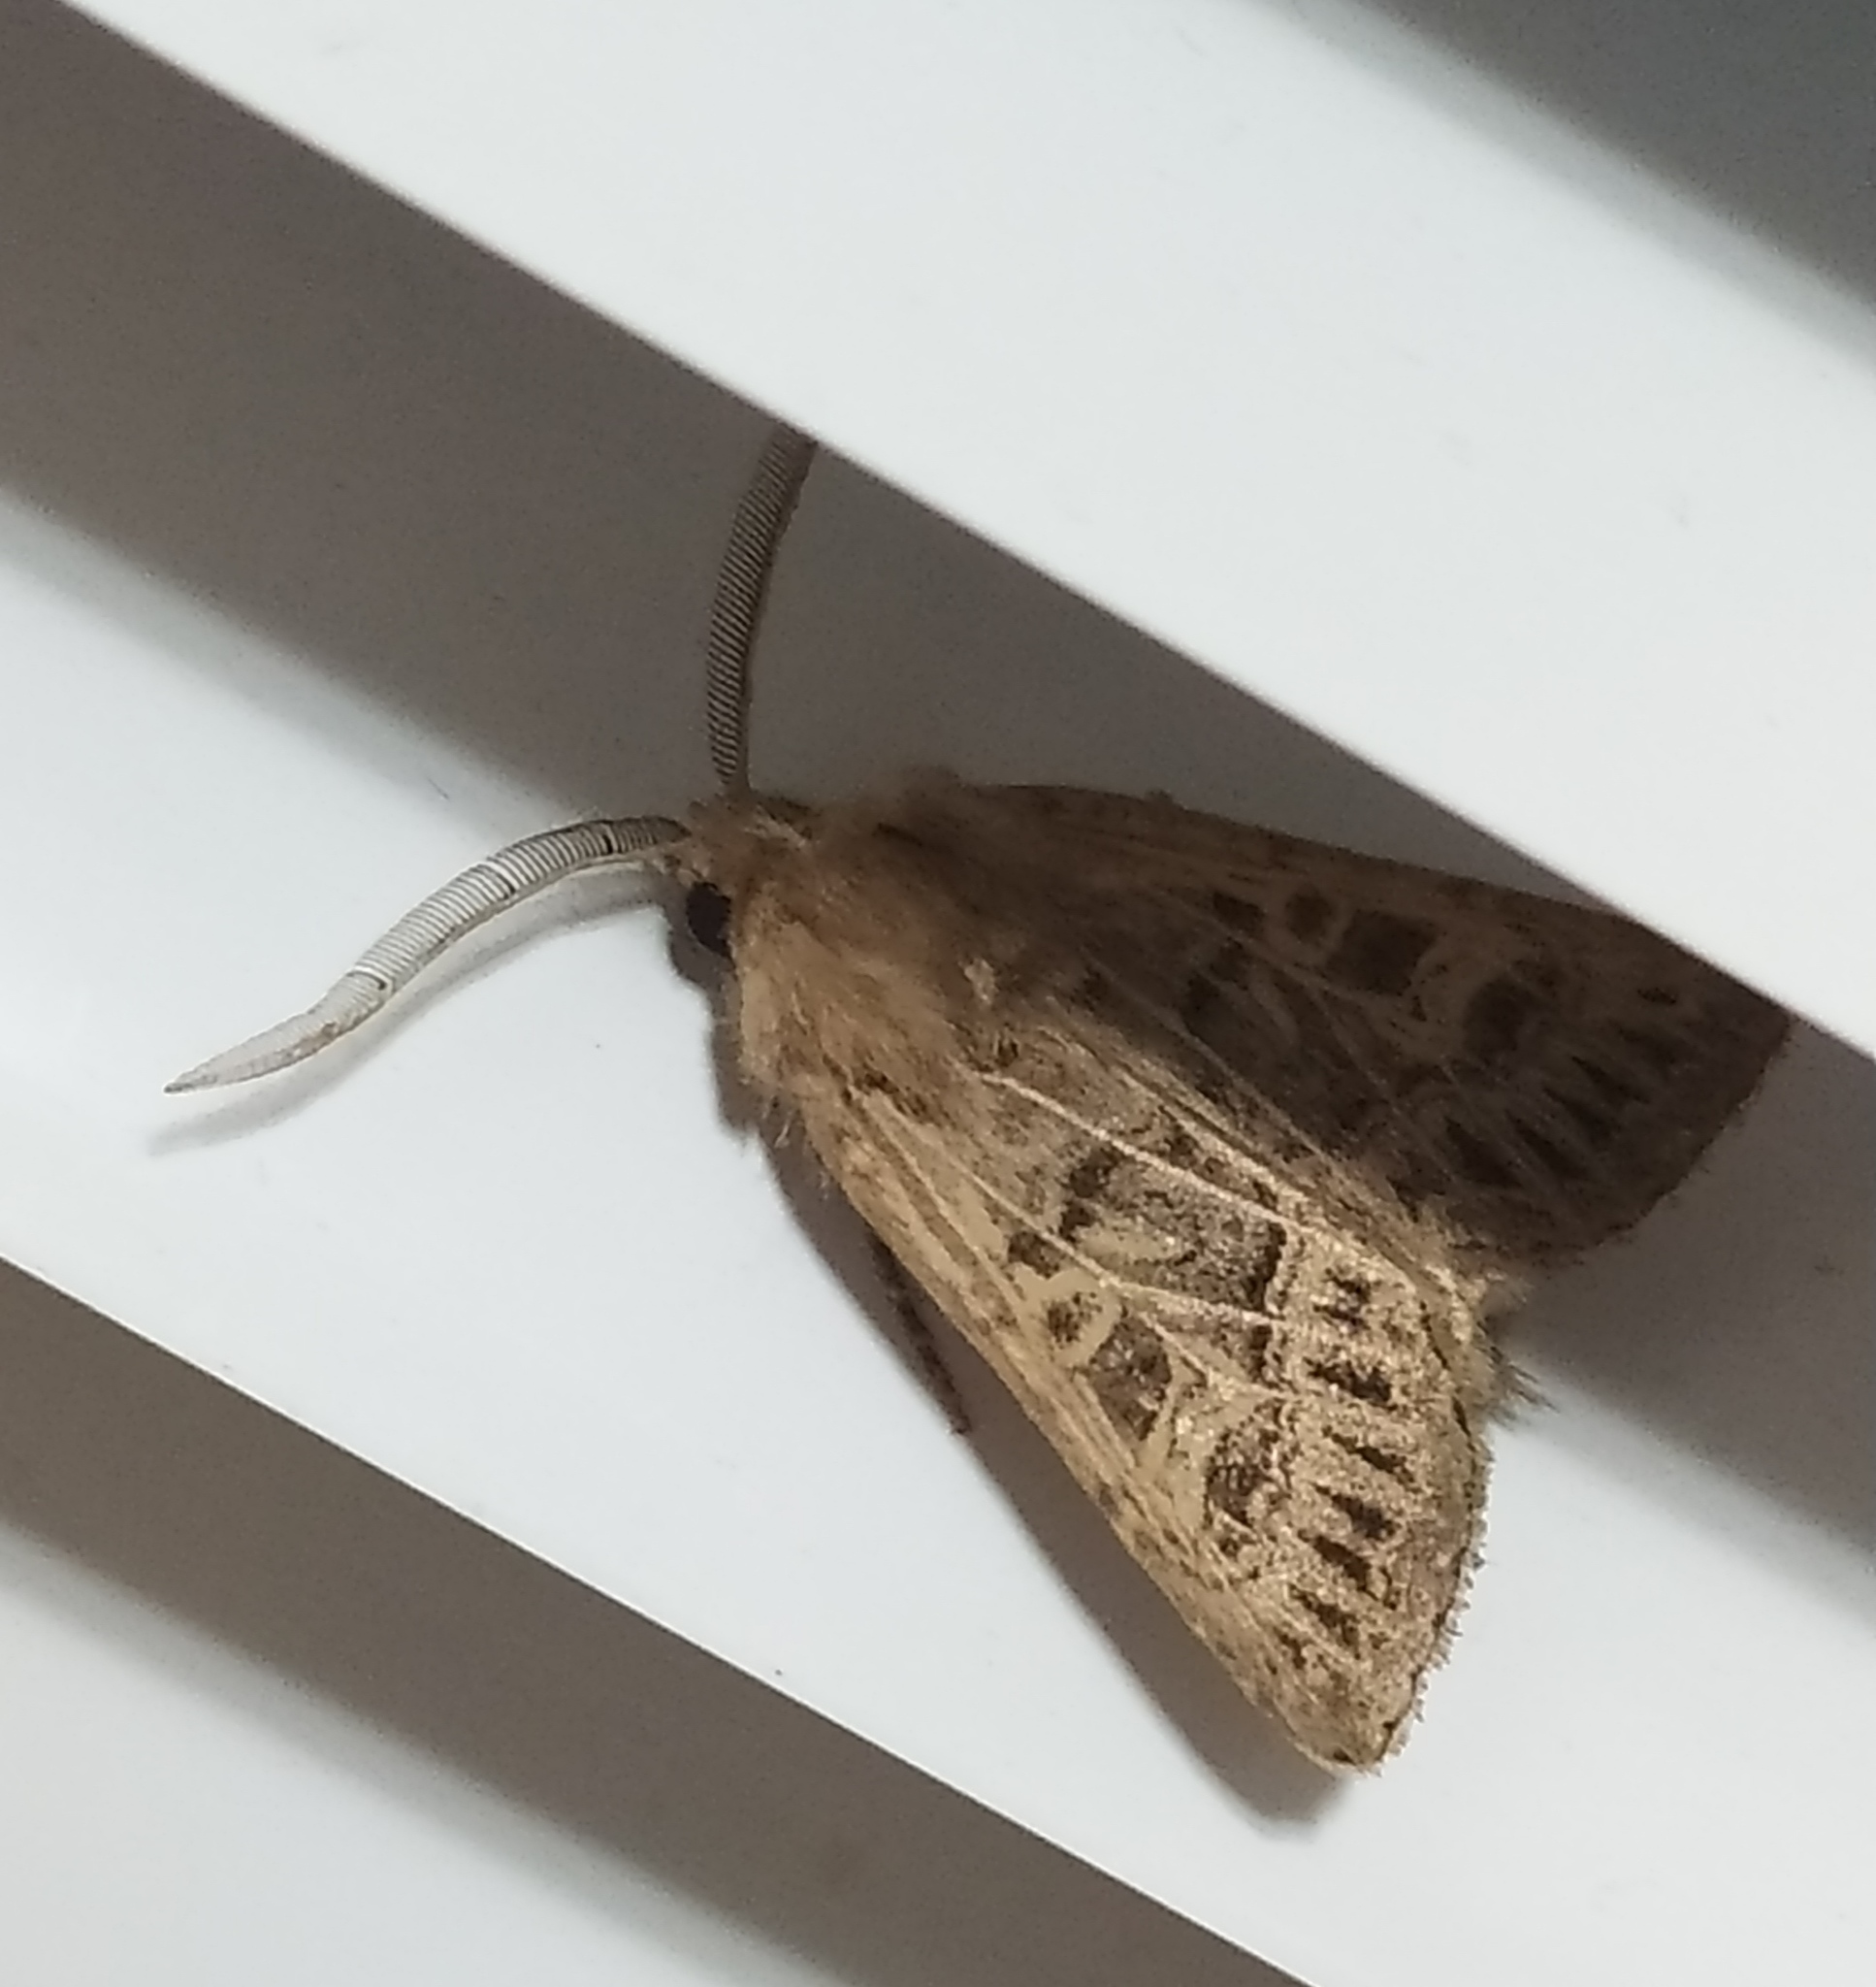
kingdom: Animalia
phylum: Arthropoda
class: Insecta
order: Lepidoptera
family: Noctuidae
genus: Tholera
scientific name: Tholera decimalis
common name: Feathered gothic
